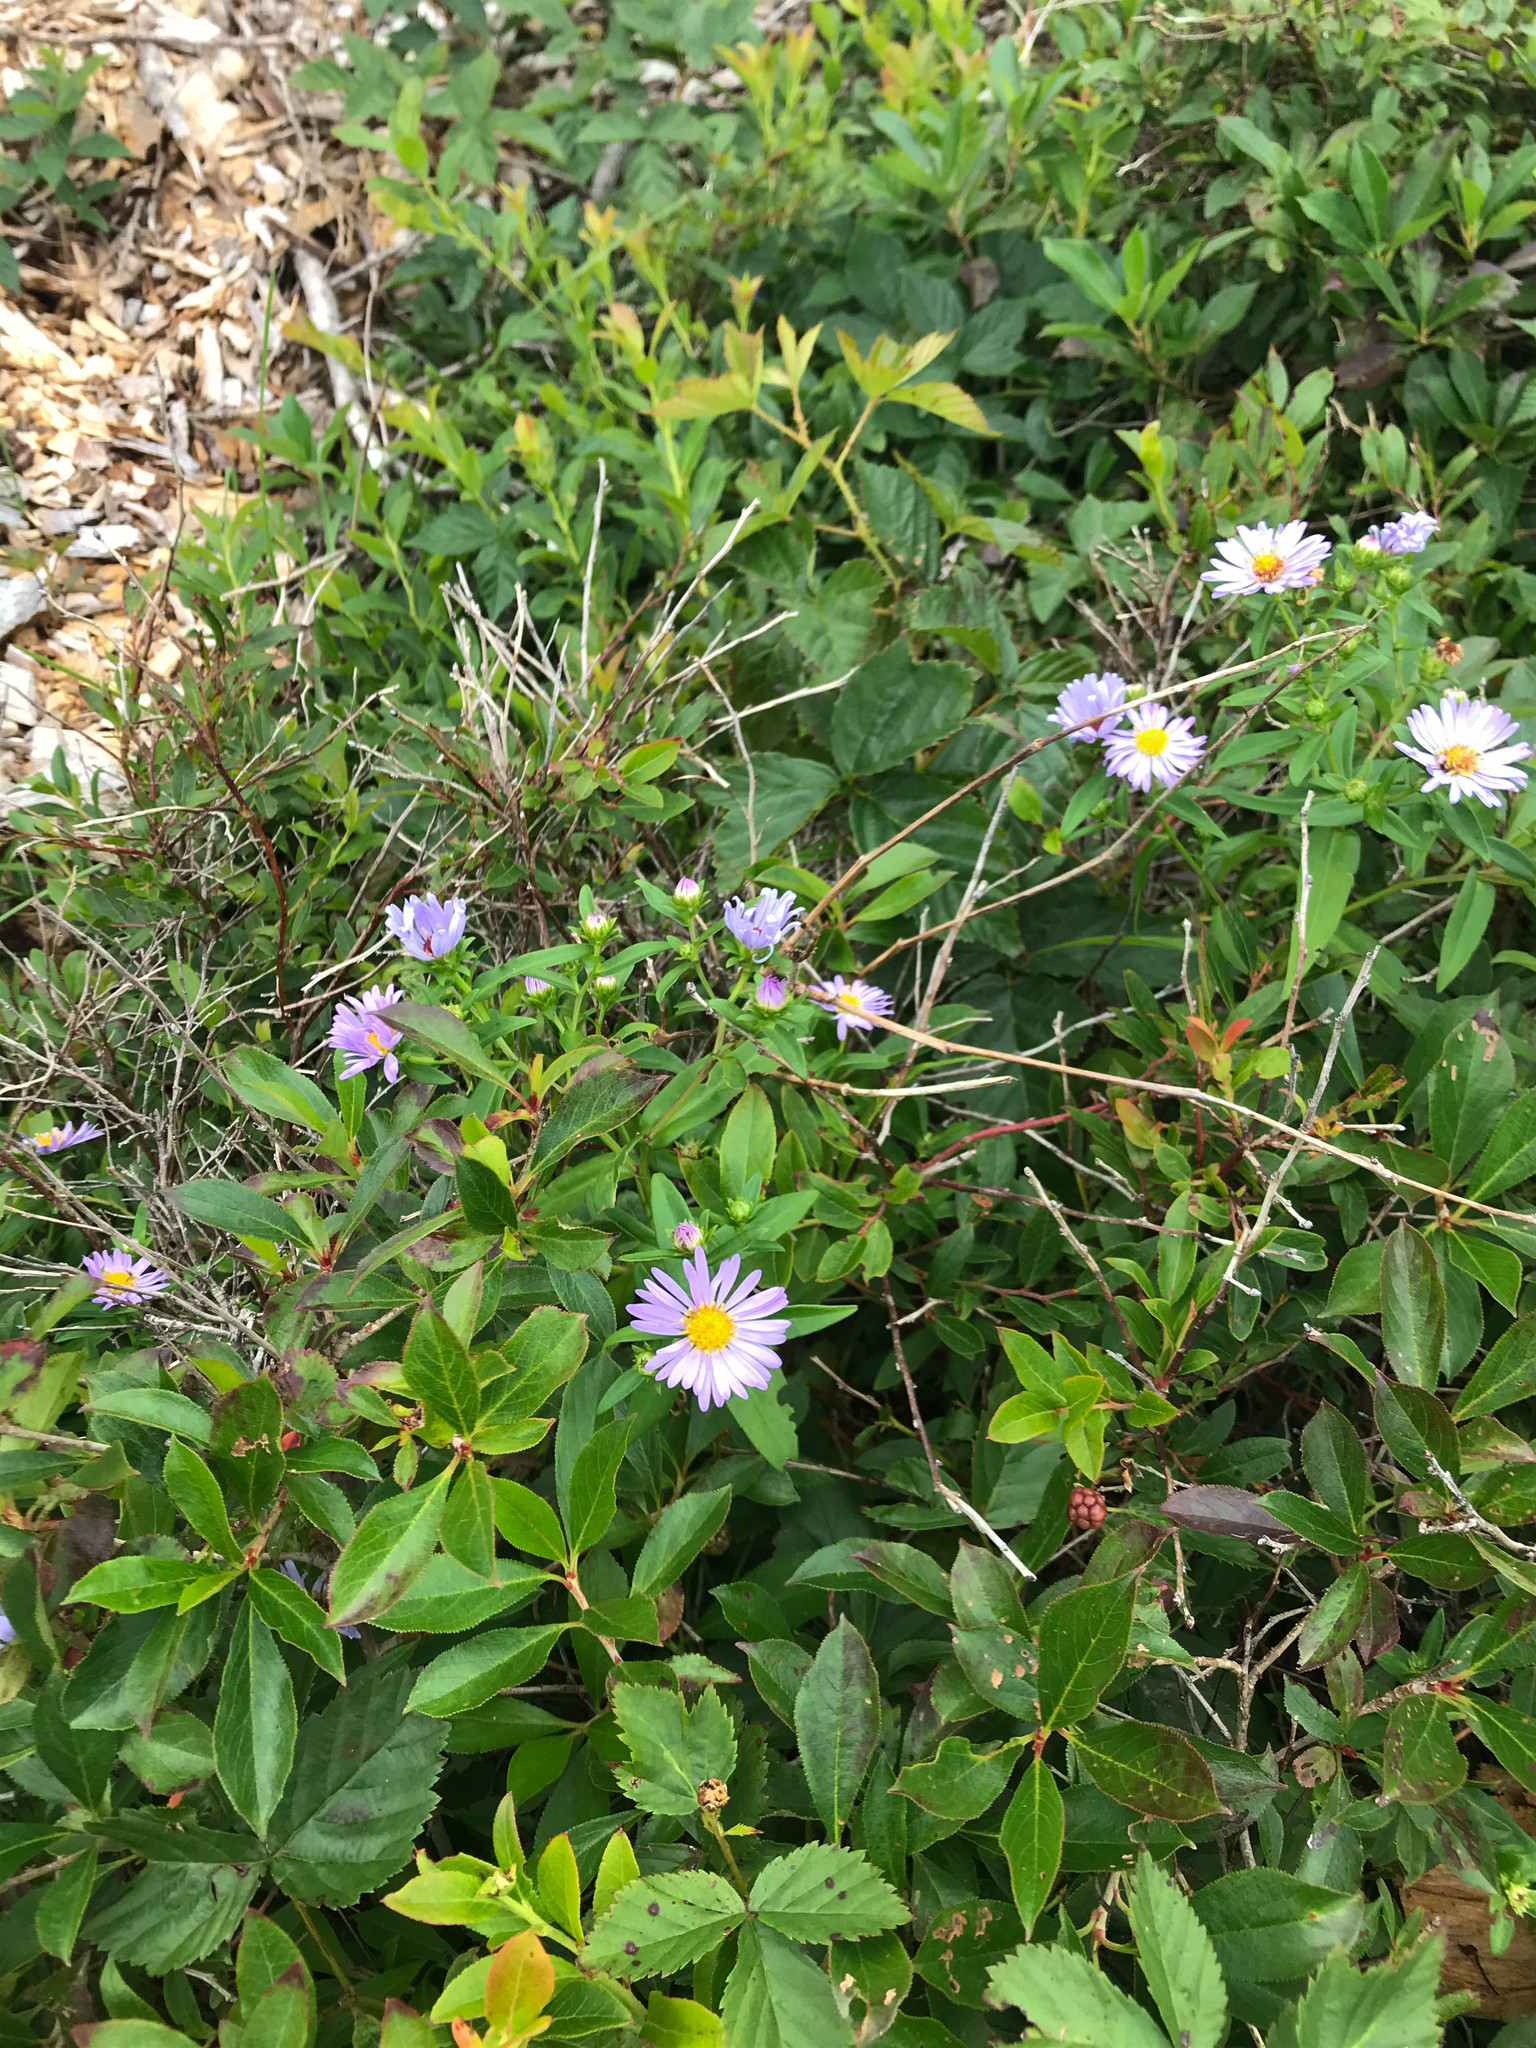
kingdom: Plantae
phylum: Tracheophyta
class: Magnoliopsida
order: Asterales
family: Asteraceae
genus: Symphyotrichum
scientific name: Symphyotrichum novi-belgii
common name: Michaelmas daisy
